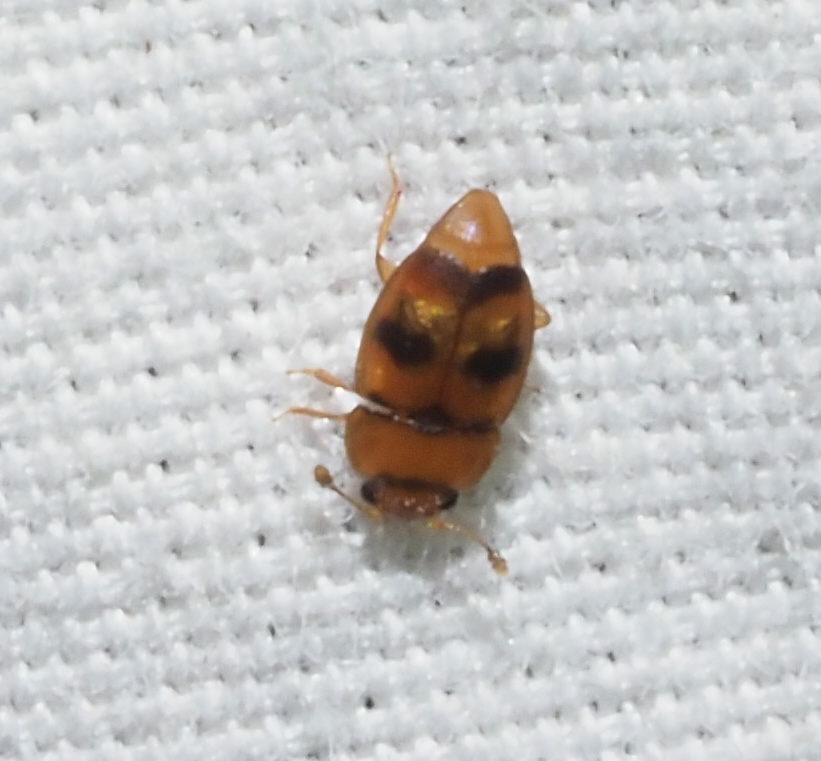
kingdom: Animalia
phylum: Arthropoda
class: Insecta
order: Coleoptera
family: Nitidulidae
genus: Epuraea
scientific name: Epuraea ocularis
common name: Sap beetle
